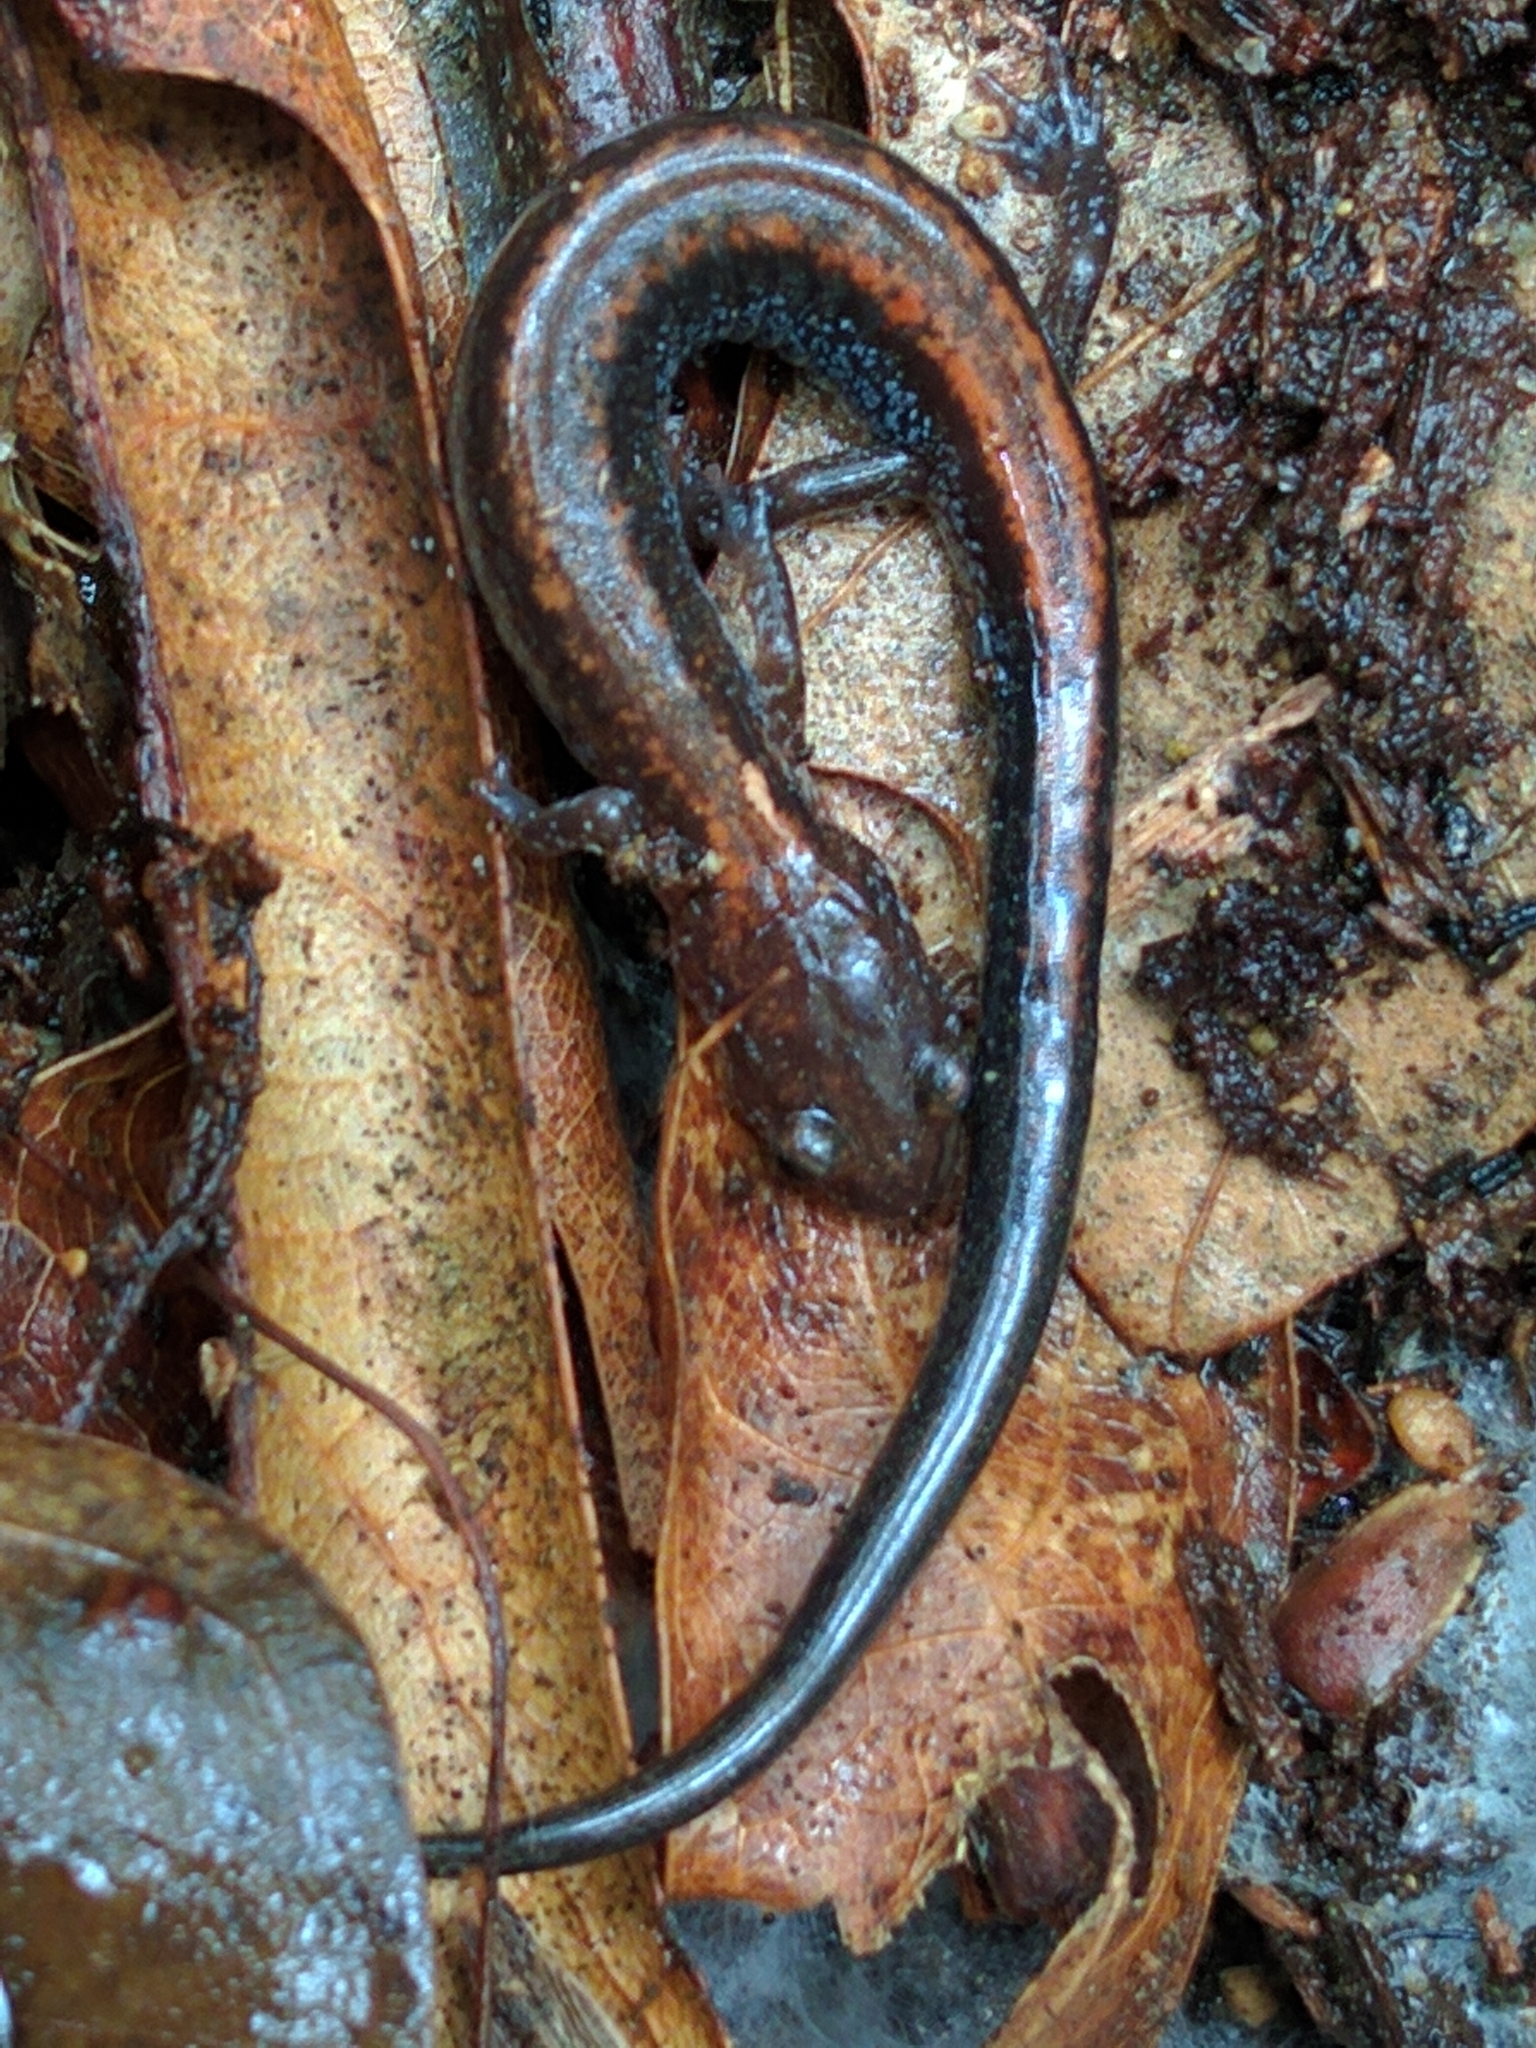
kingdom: Animalia
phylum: Chordata
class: Amphibia
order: Caudata
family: Plethodontidae
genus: Plethodon
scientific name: Plethodon cinereus
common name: Redback salamander
